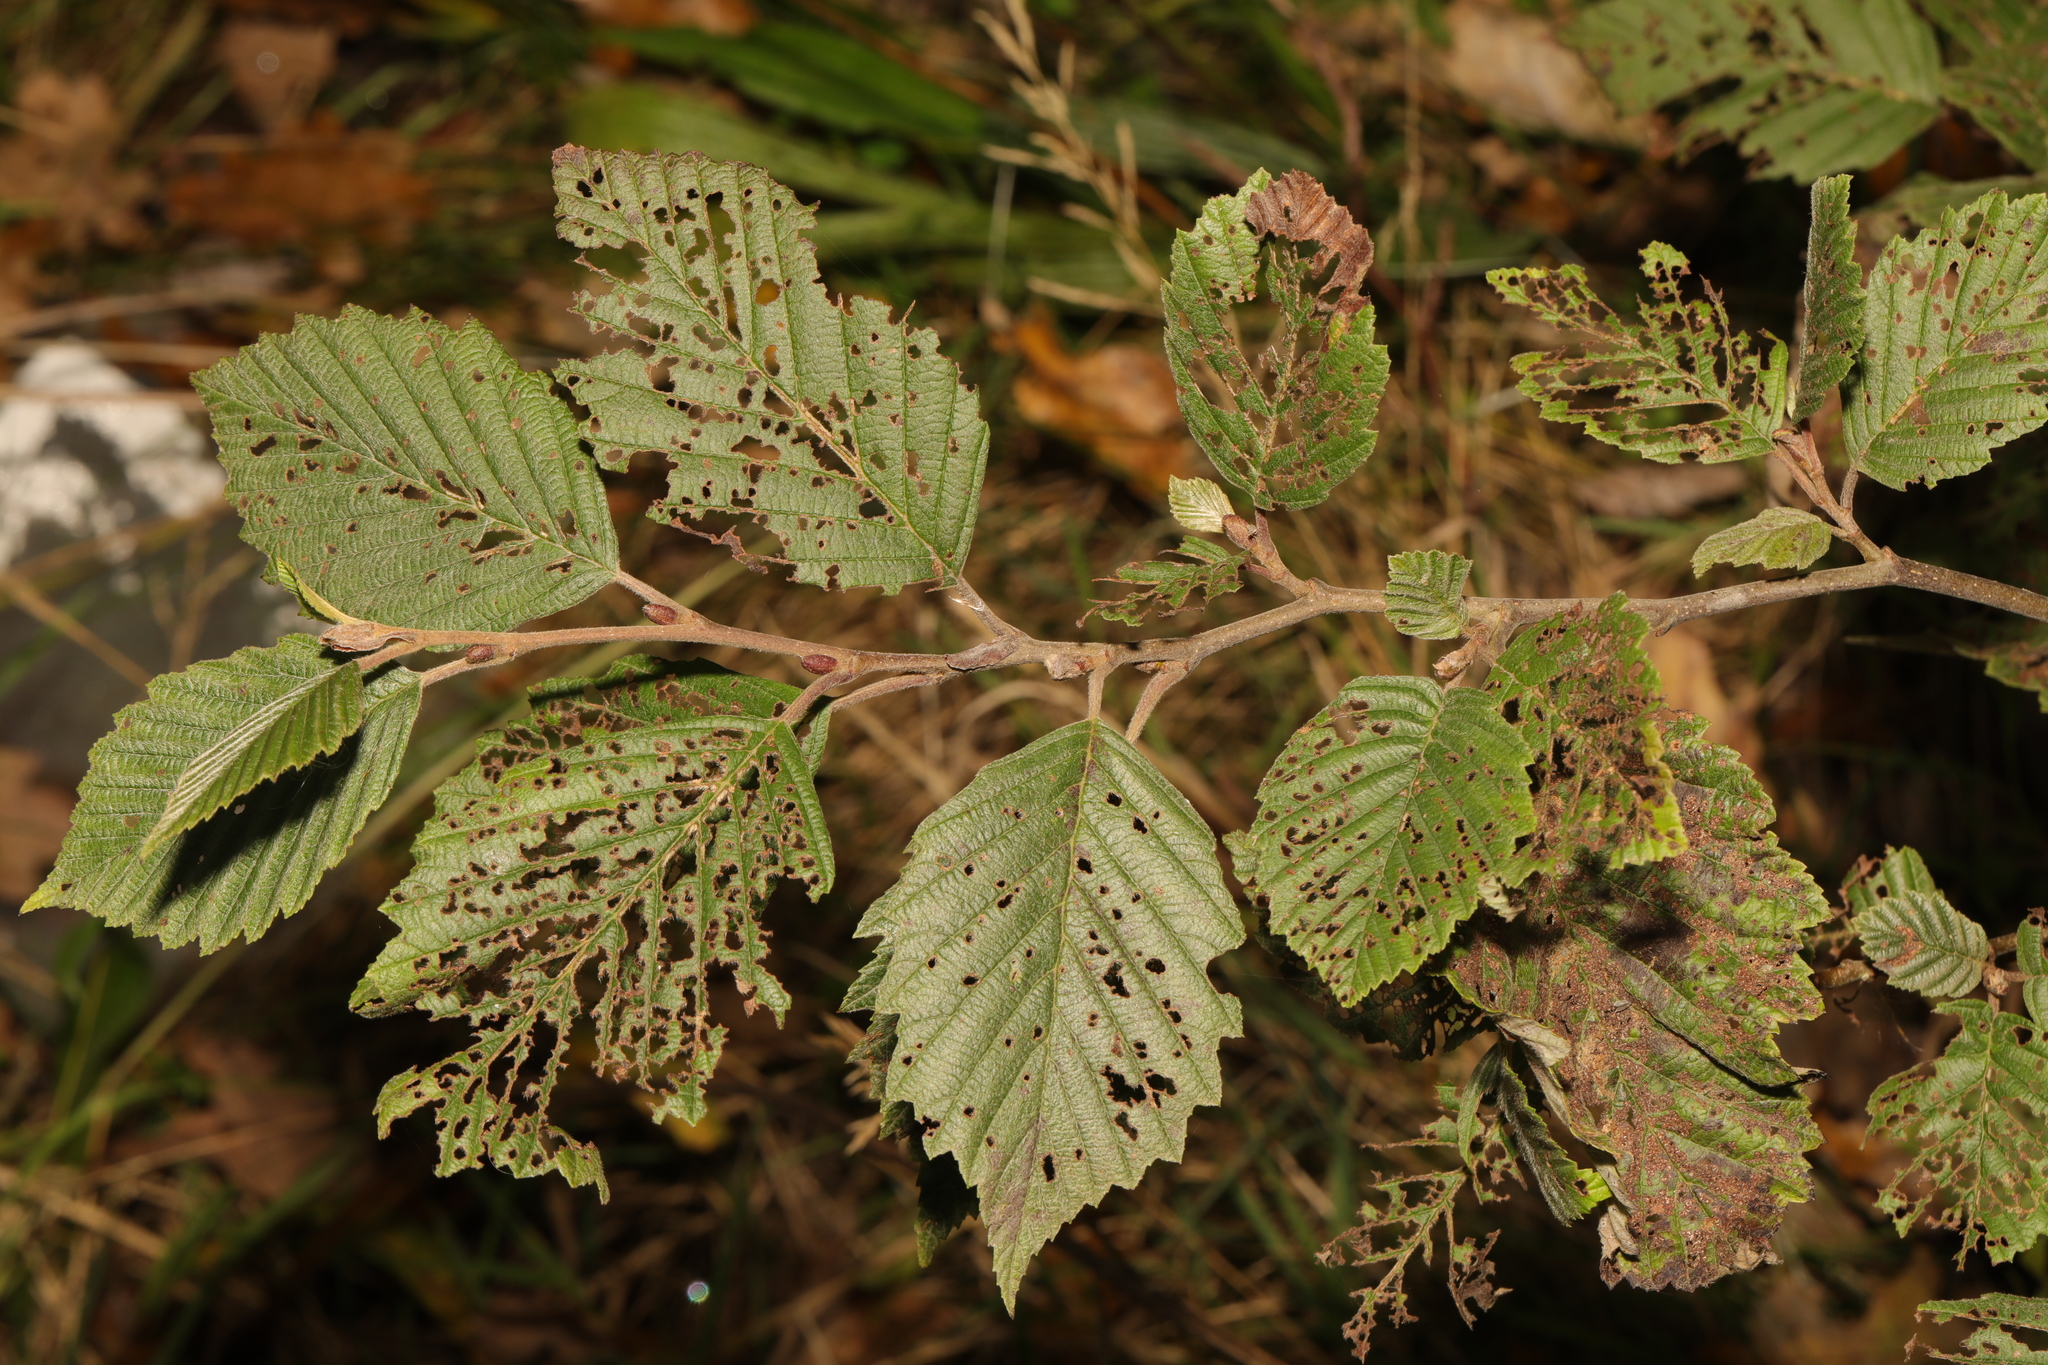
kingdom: Plantae
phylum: Tracheophyta
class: Magnoliopsida
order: Fagales
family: Betulaceae
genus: Alnus
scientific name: Alnus incana
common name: Grey alder
